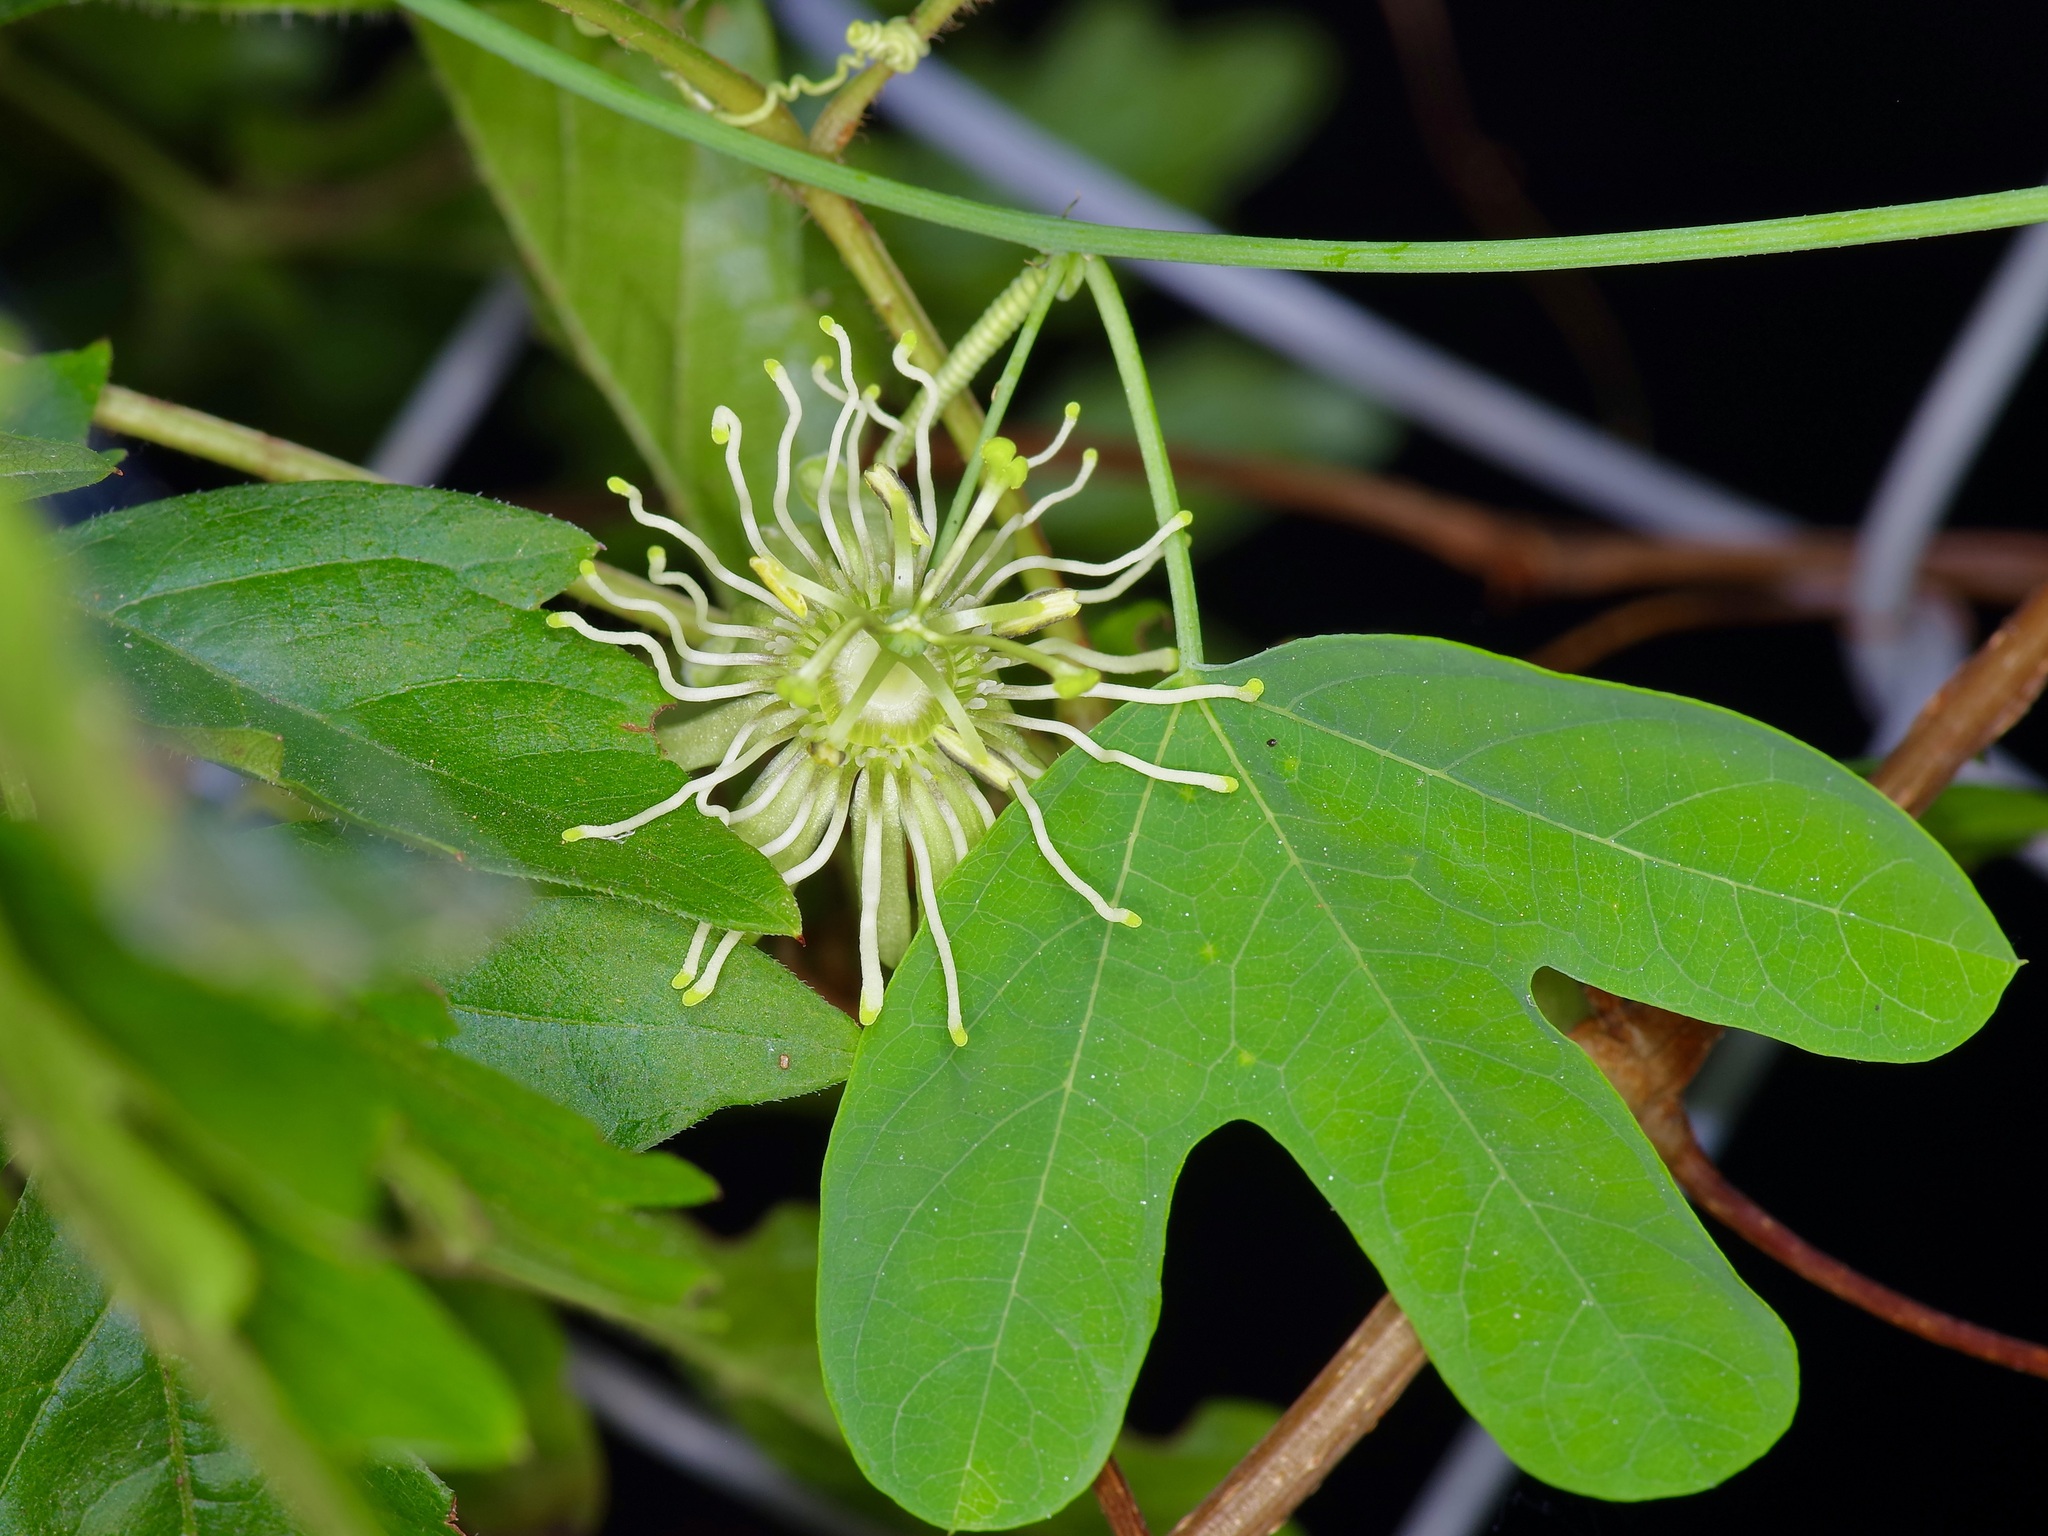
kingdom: Plantae
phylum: Tracheophyta
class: Magnoliopsida
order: Malpighiales
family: Passifloraceae
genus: Passiflora
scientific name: Passiflora affinis
